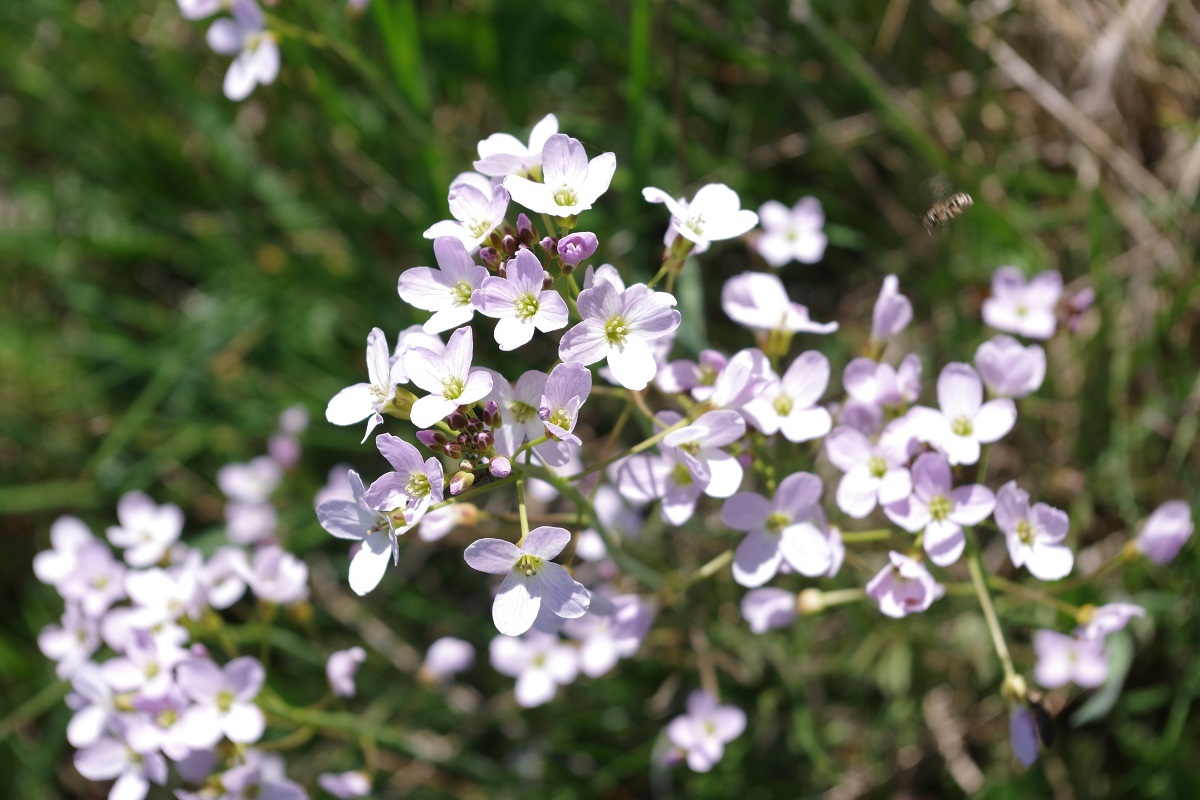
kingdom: Plantae
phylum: Tracheophyta
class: Magnoliopsida
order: Brassicales
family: Brassicaceae
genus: Cardamine
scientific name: Cardamine pratensis
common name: Cuckoo flower
